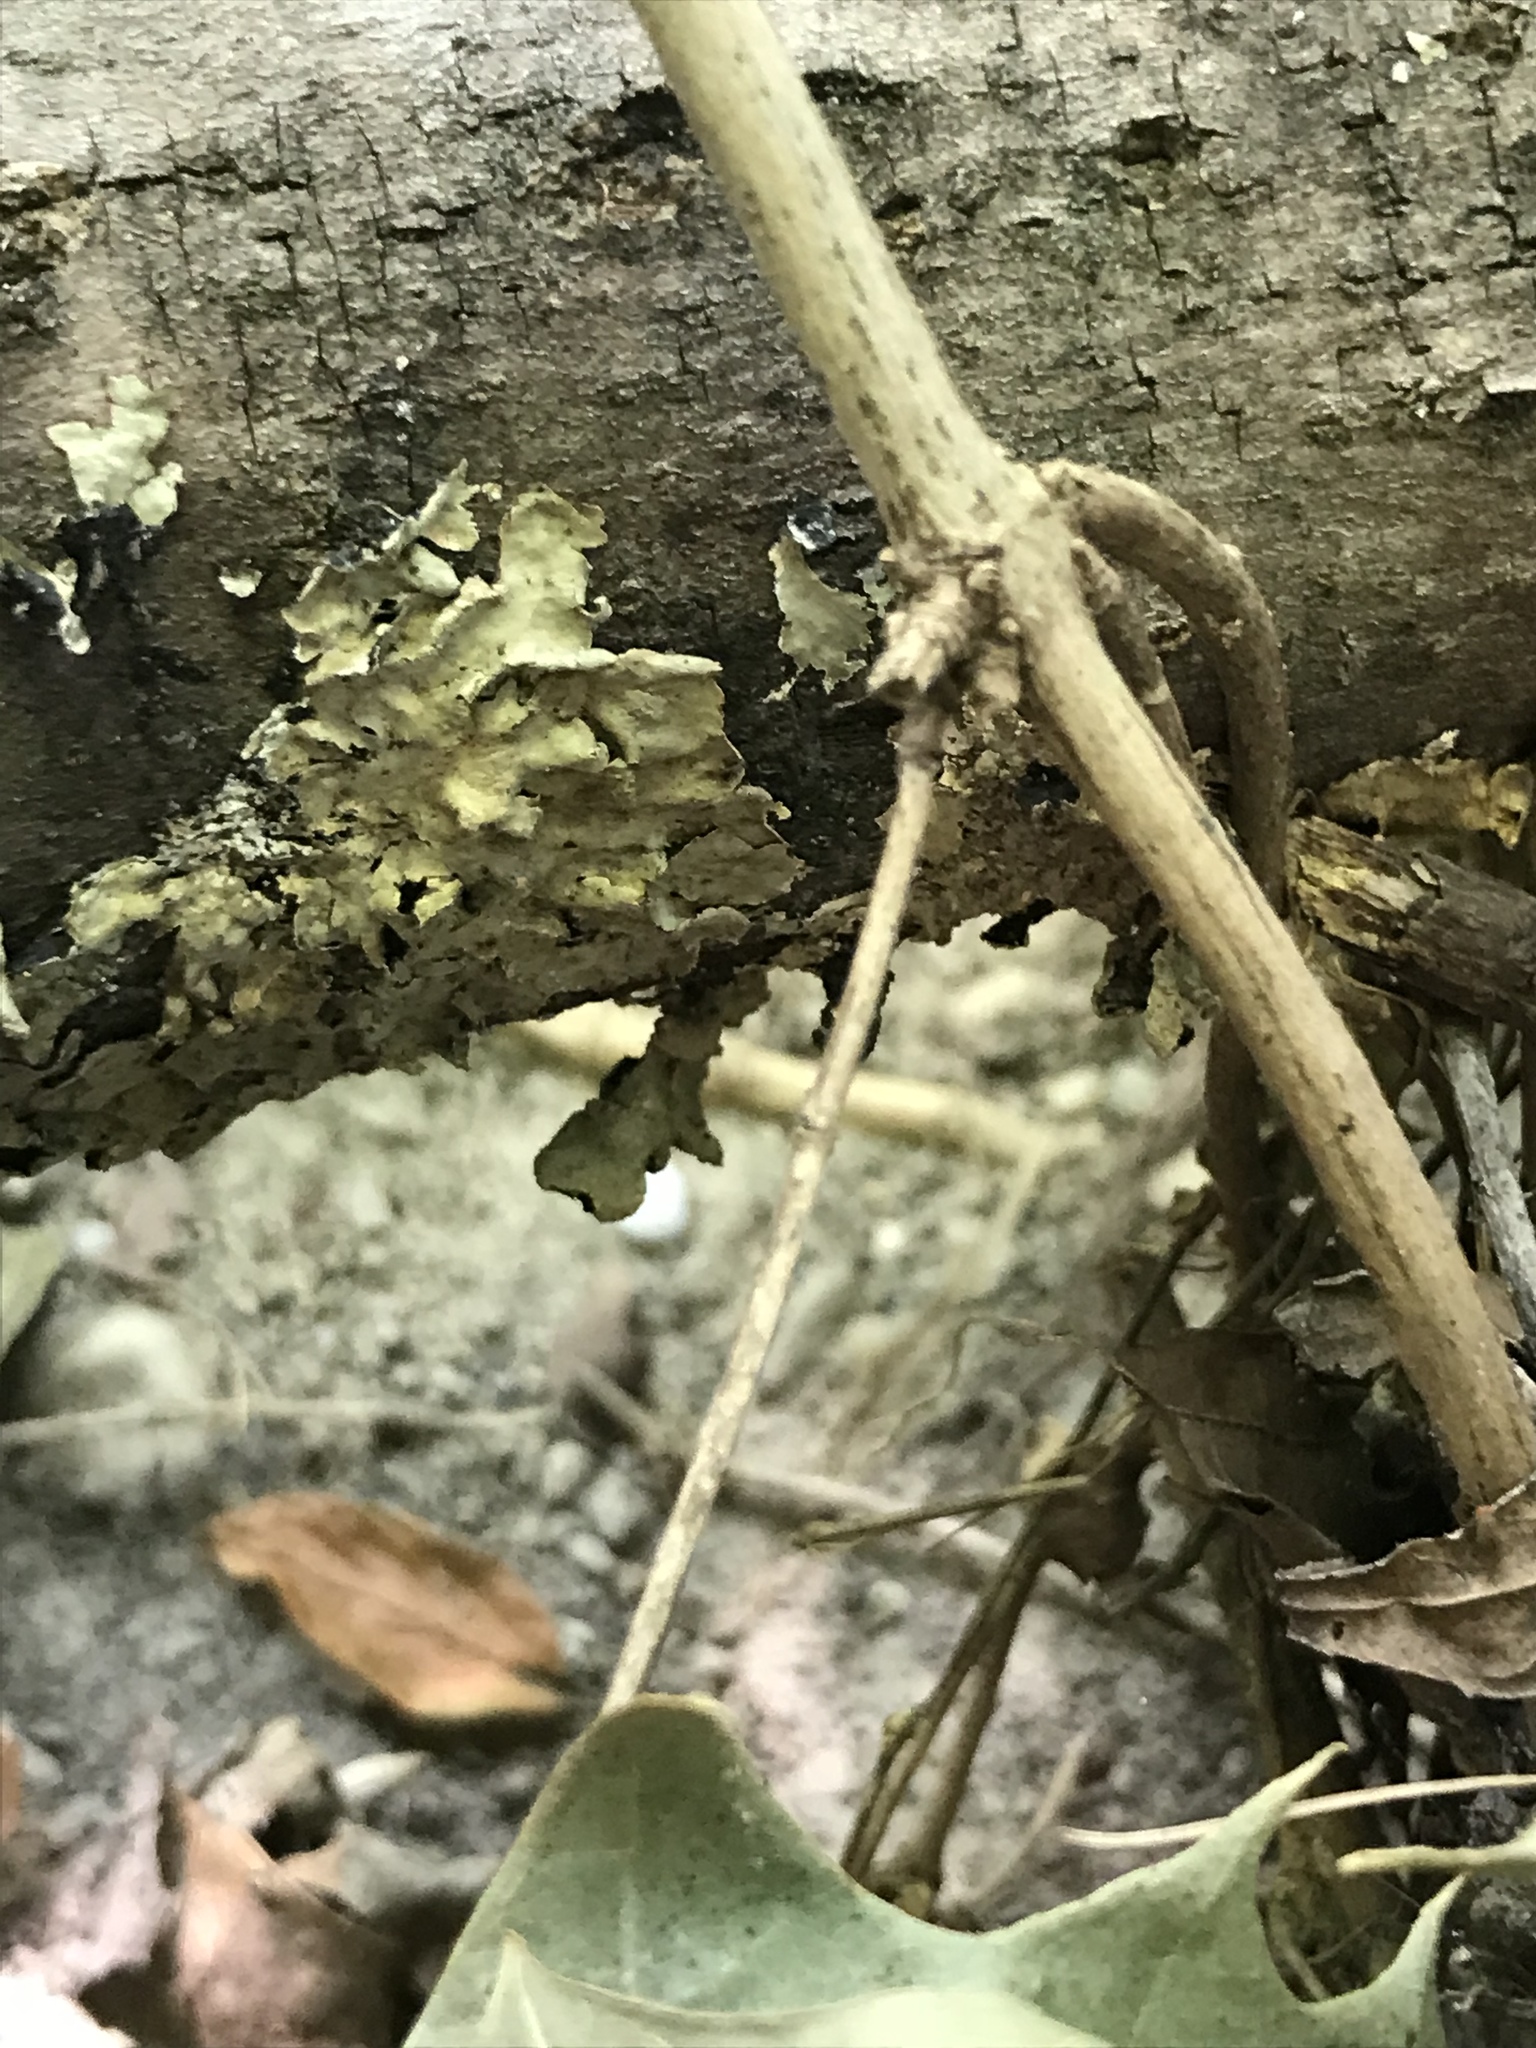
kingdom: Fungi
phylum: Ascomycota
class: Lecanoromycetes
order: Lecanorales
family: Parmeliaceae
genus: Flavoparmelia
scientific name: Flavoparmelia caperata
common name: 40-mile per hour lichen
